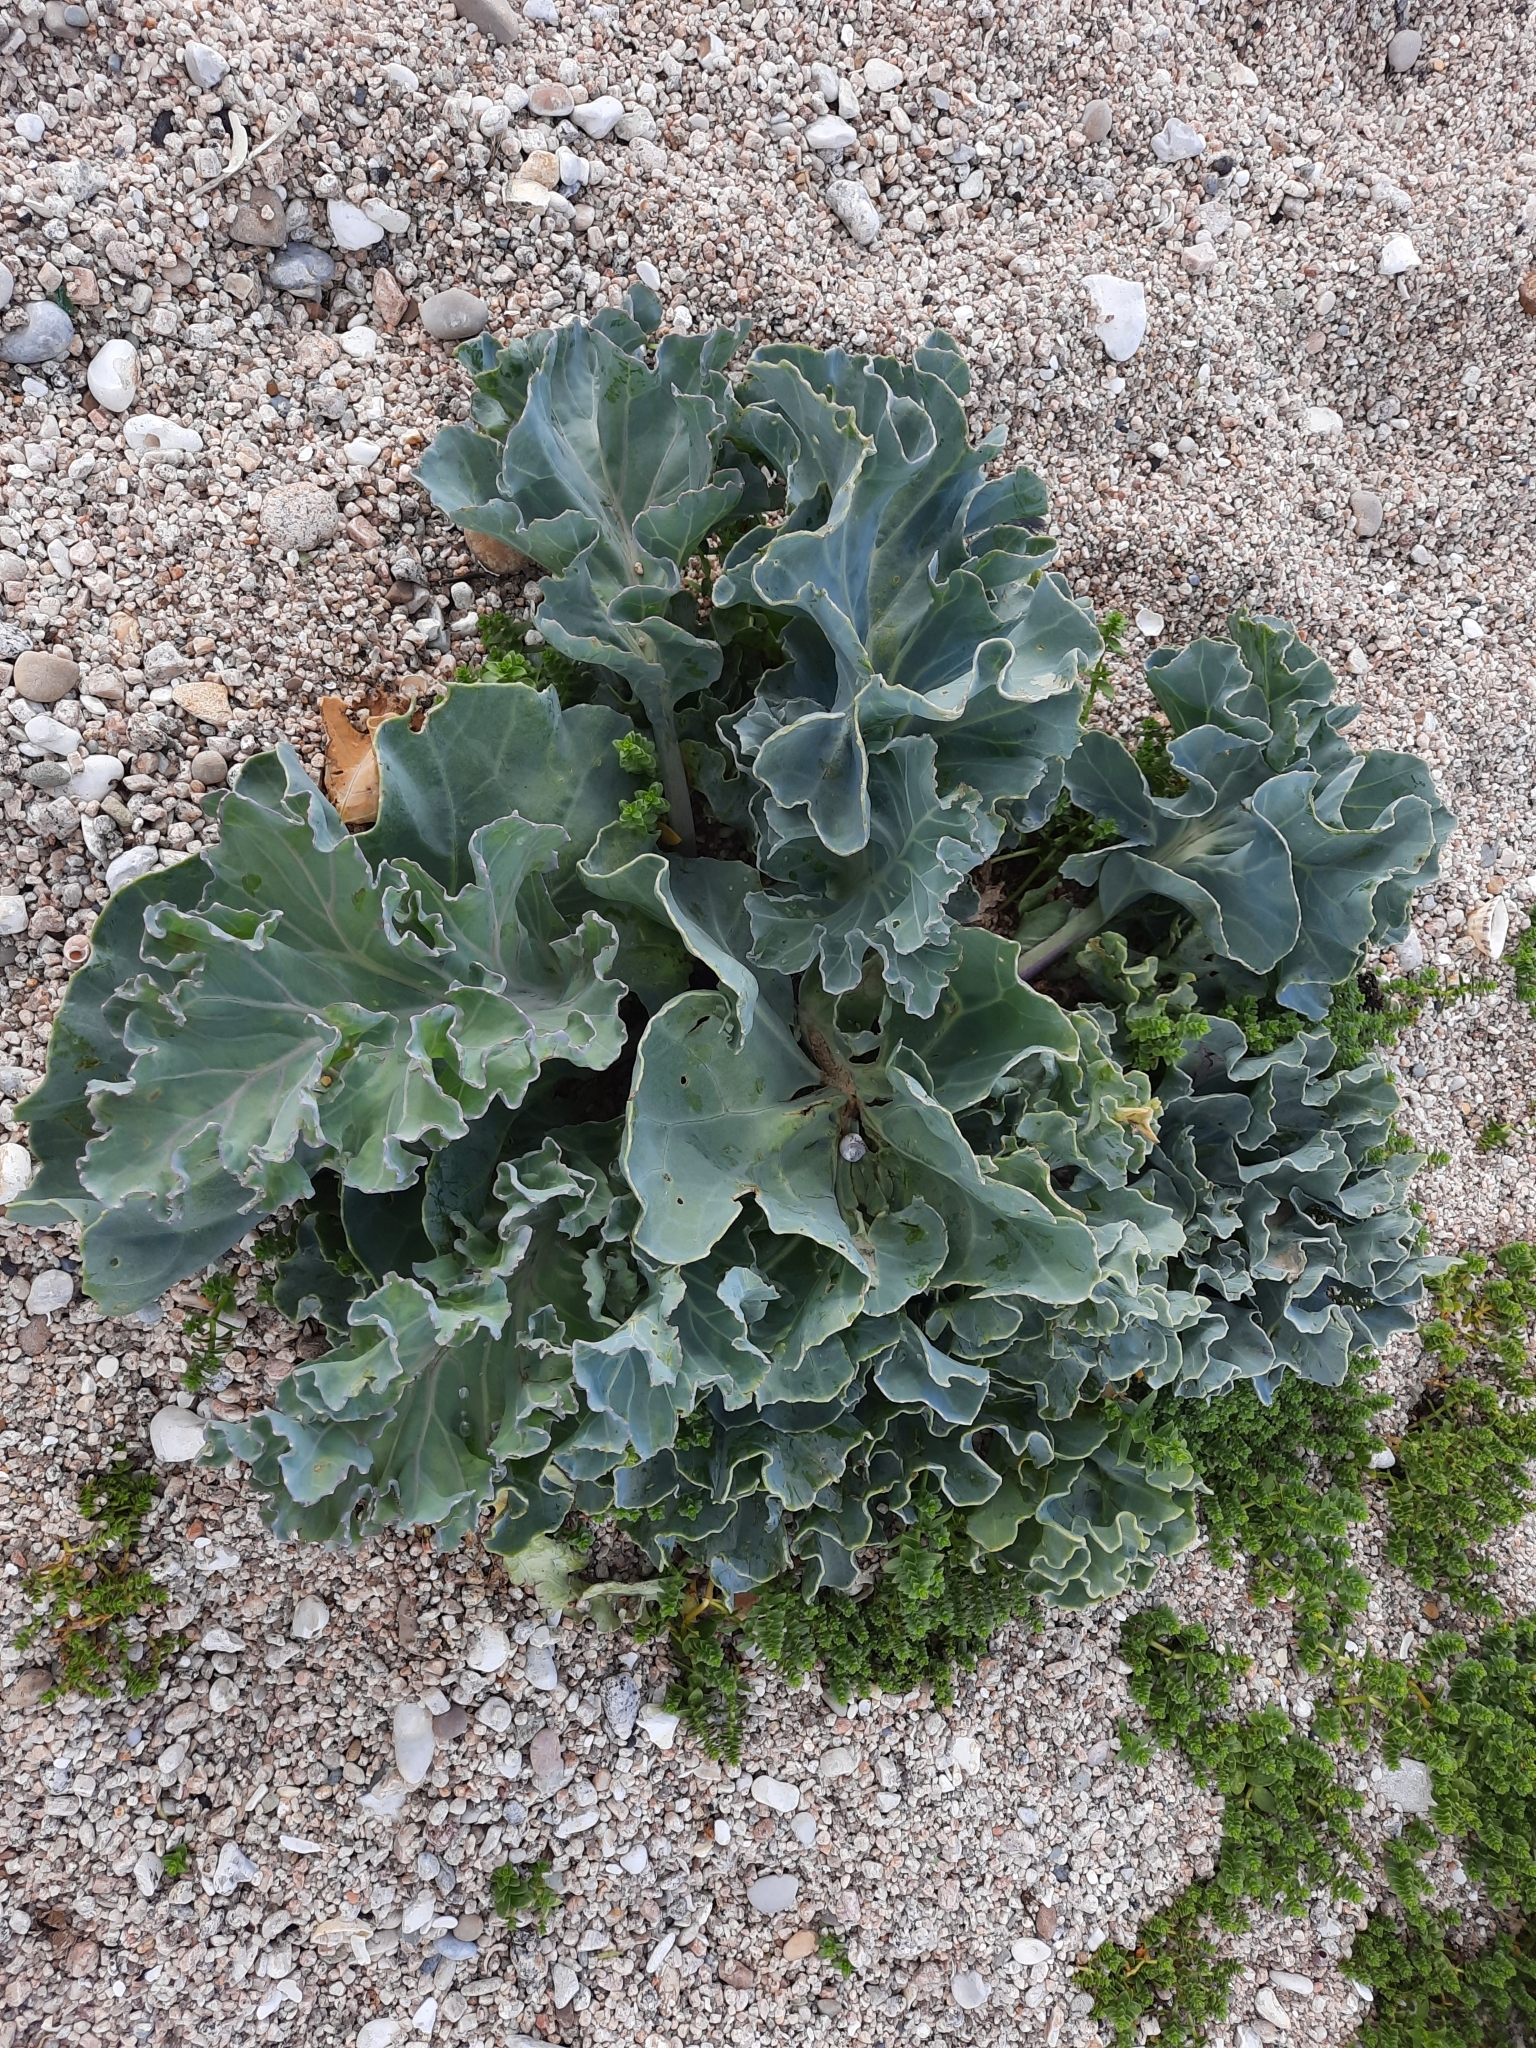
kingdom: Plantae
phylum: Tracheophyta
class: Magnoliopsida
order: Brassicales
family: Brassicaceae
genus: Crambe
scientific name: Crambe maritima
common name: Sea-kale
